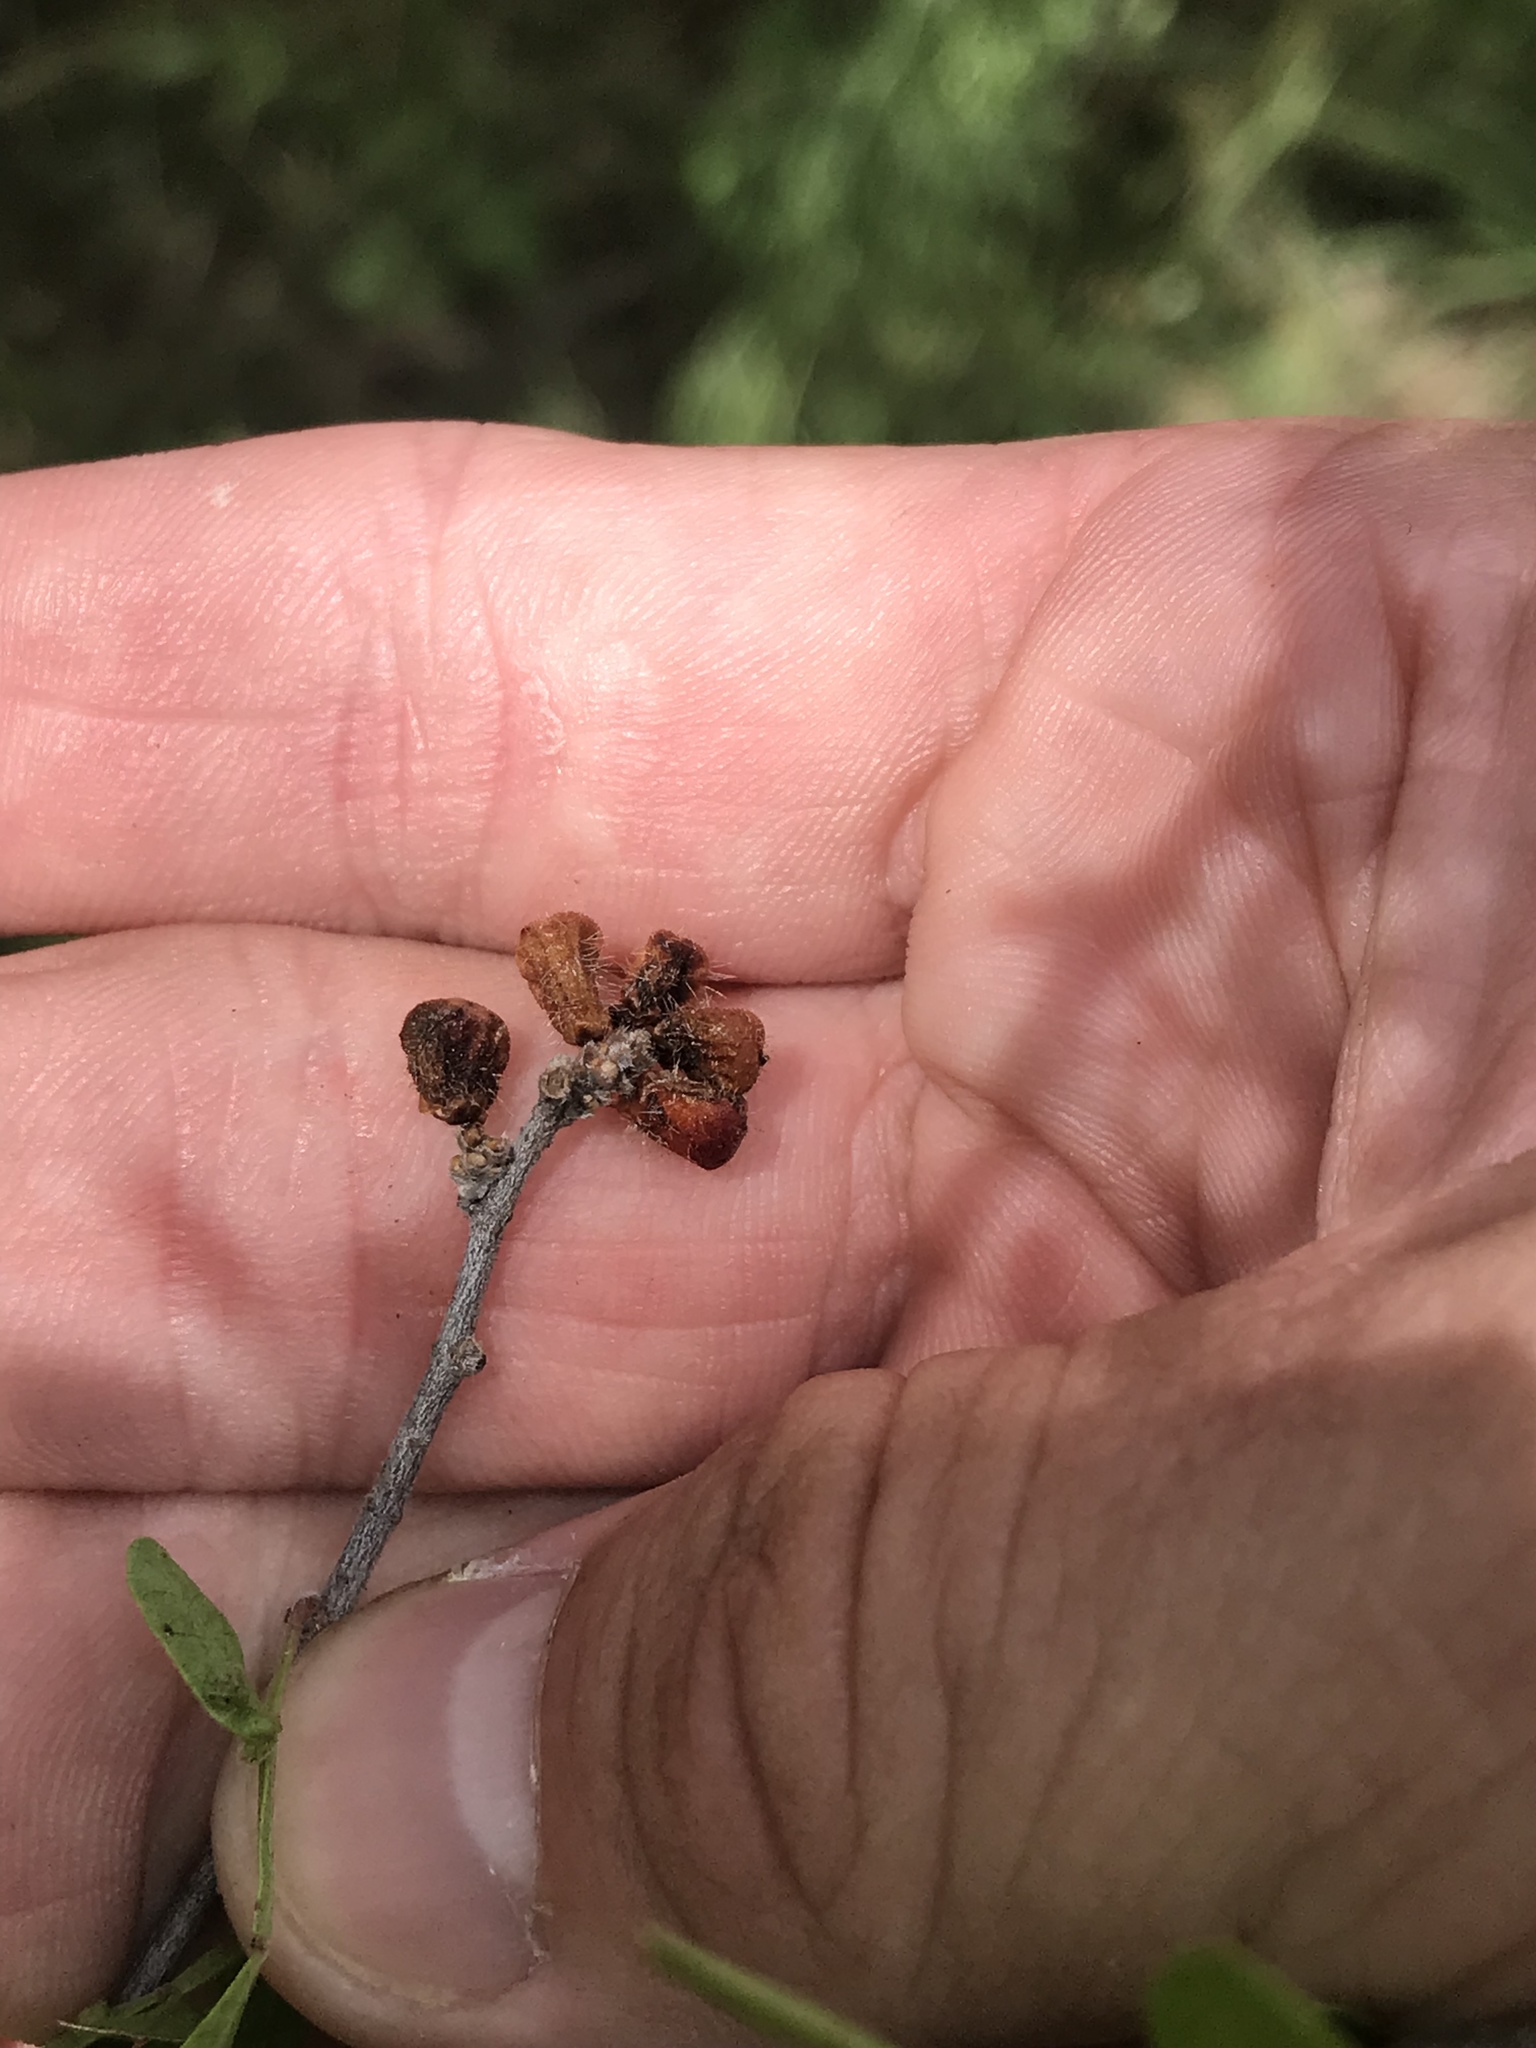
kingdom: Plantae
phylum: Tracheophyta
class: Magnoliopsida
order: Sapindales
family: Anacardiaceae
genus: Rhus
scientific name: Rhus microphylla
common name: Desert sumac
